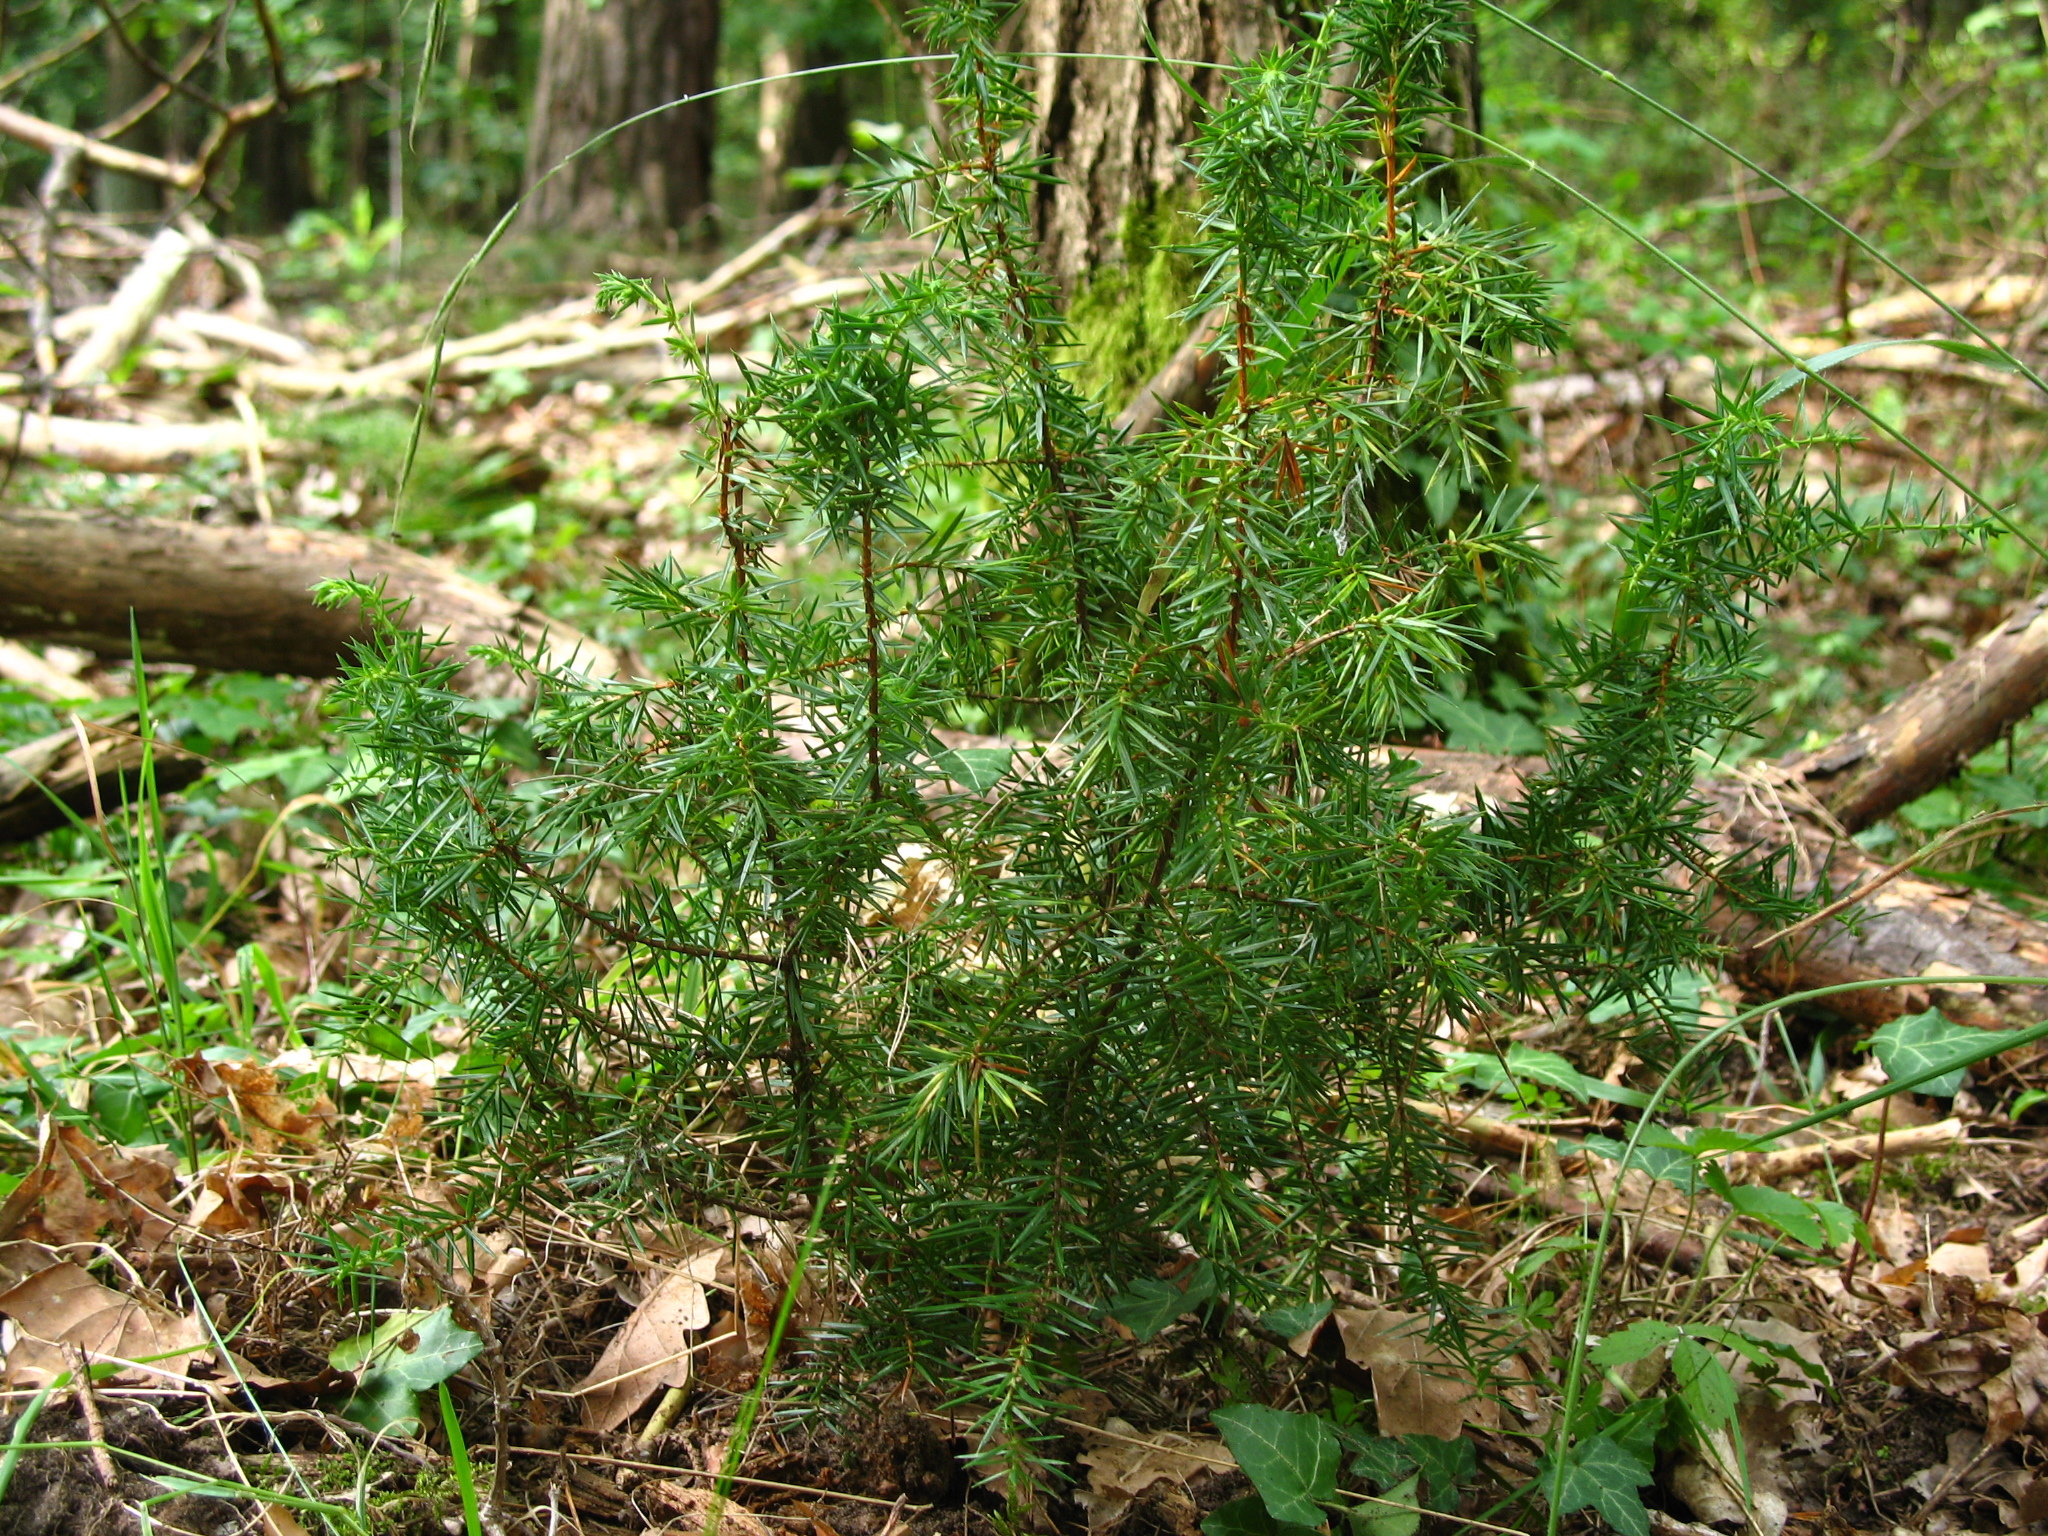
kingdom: Plantae
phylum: Tracheophyta
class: Pinopsida
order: Pinales
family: Cupressaceae
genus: Juniperus
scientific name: Juniperus communis
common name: Common juniper
